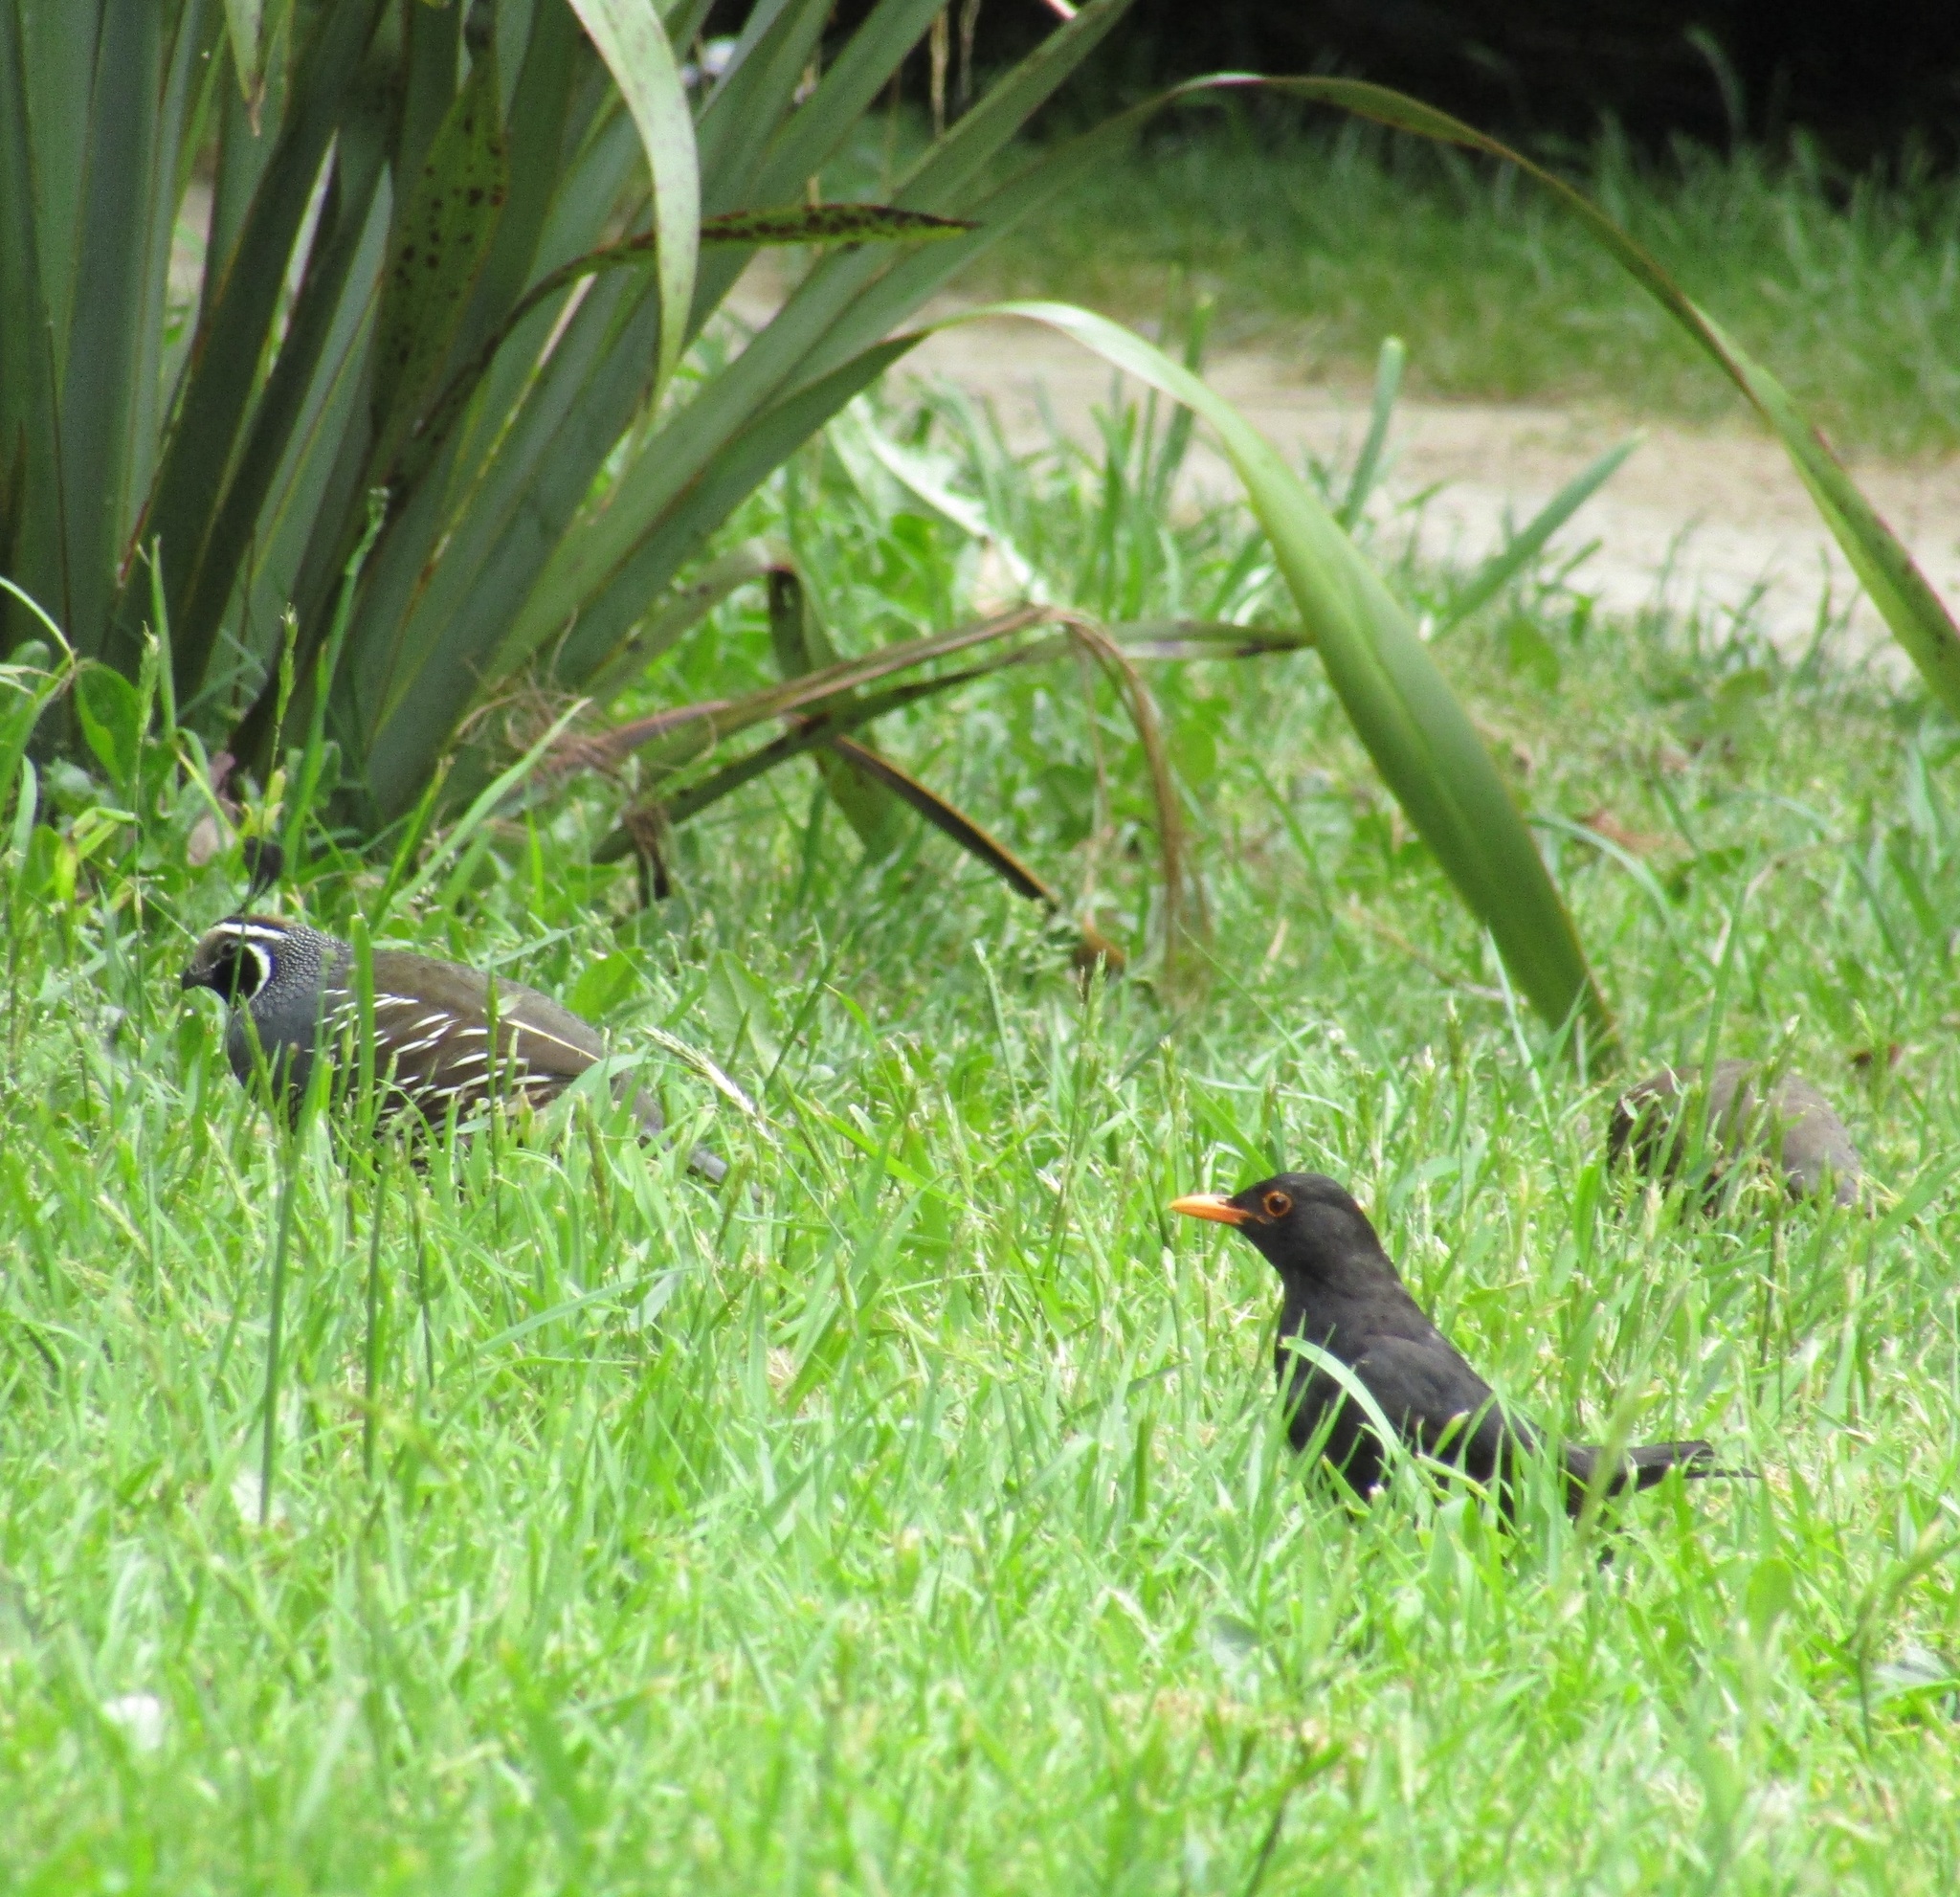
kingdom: Animalia
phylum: Chordata
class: Aves
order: Passeriformes
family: Turdidae
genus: Turdus
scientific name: Turdus merula
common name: Common blackbird
